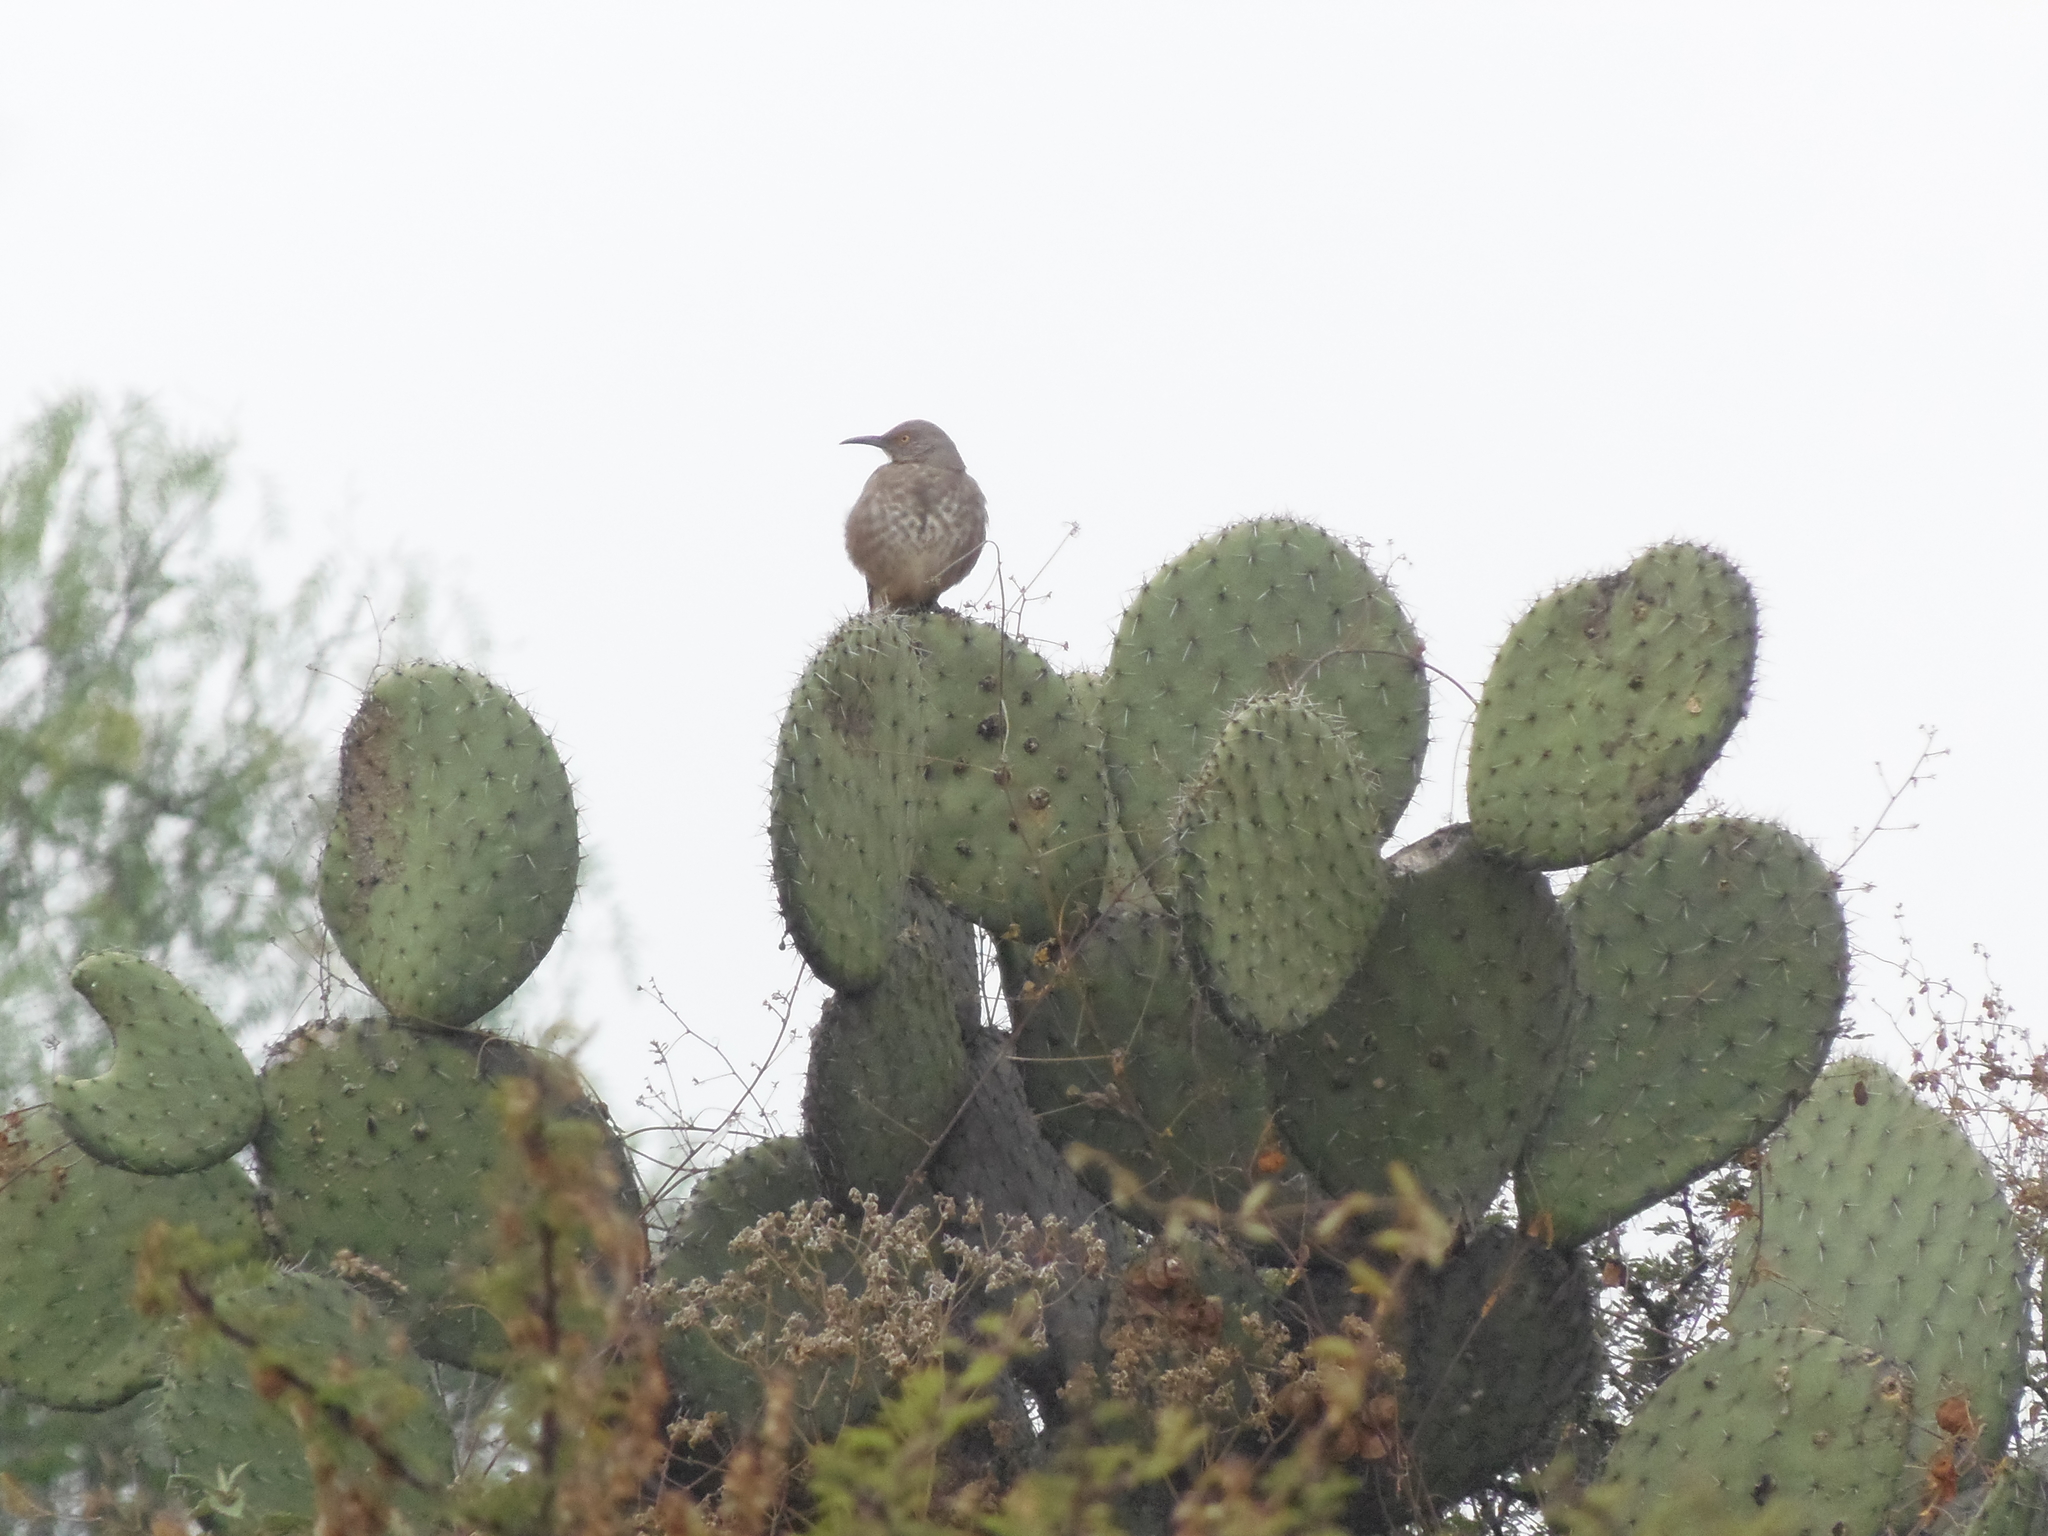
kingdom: Animalia
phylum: Chordata
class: Aves
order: Passeriformes
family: Mimidae
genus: Toxostoma
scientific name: Toxostoma curvirostre
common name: Curve-billed thrasher
